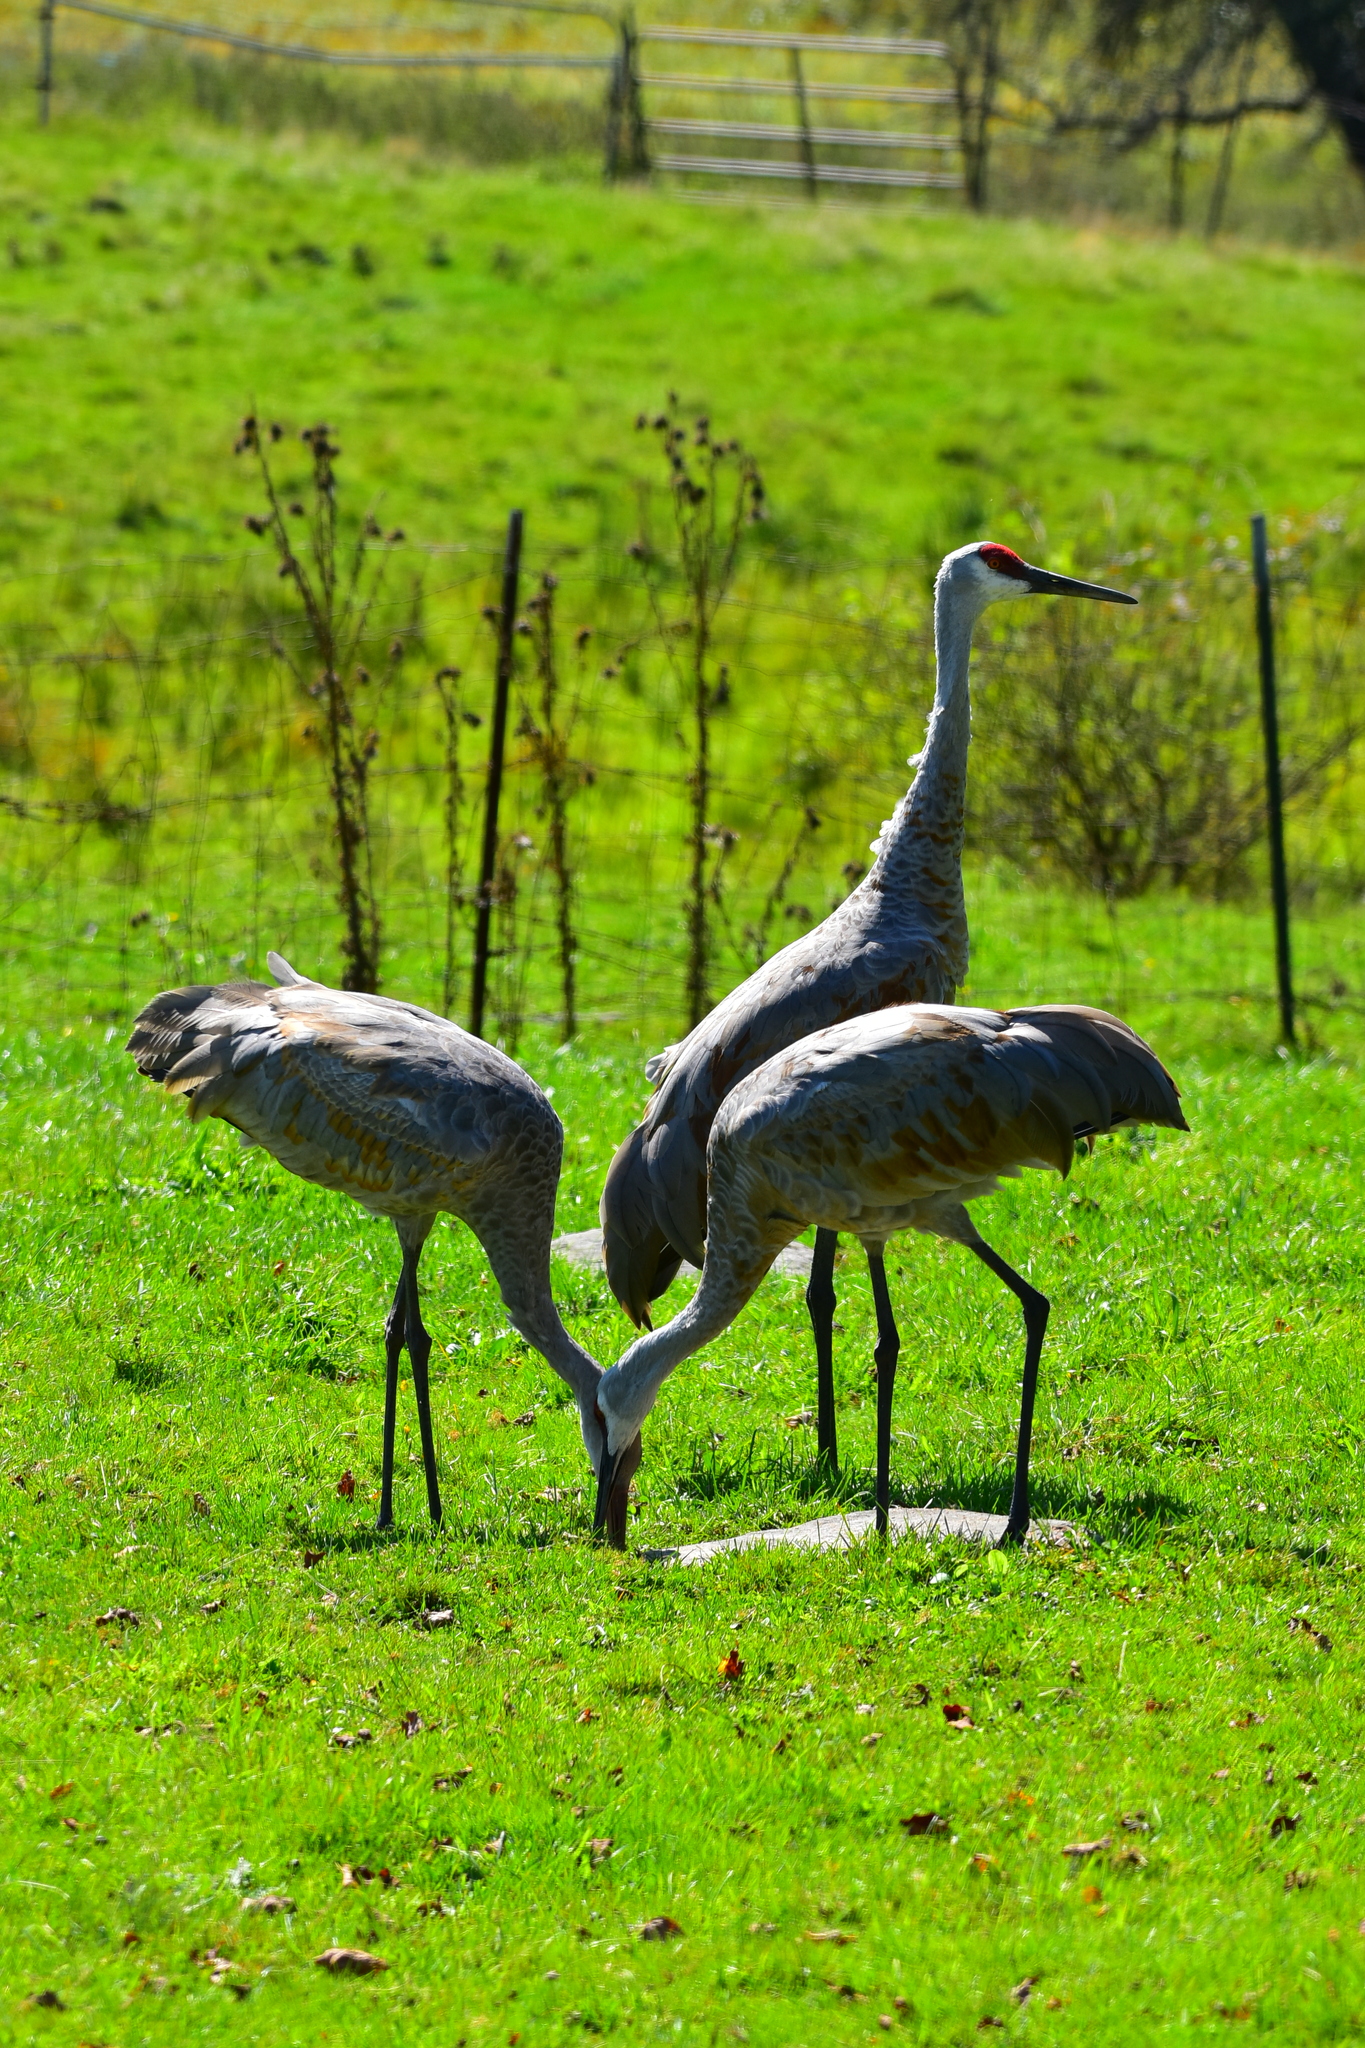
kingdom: Animalia
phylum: Chordata
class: Aves
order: Gruiformes
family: Gruidae
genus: Grus
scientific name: Grus canadensis
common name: Sandhill crane
